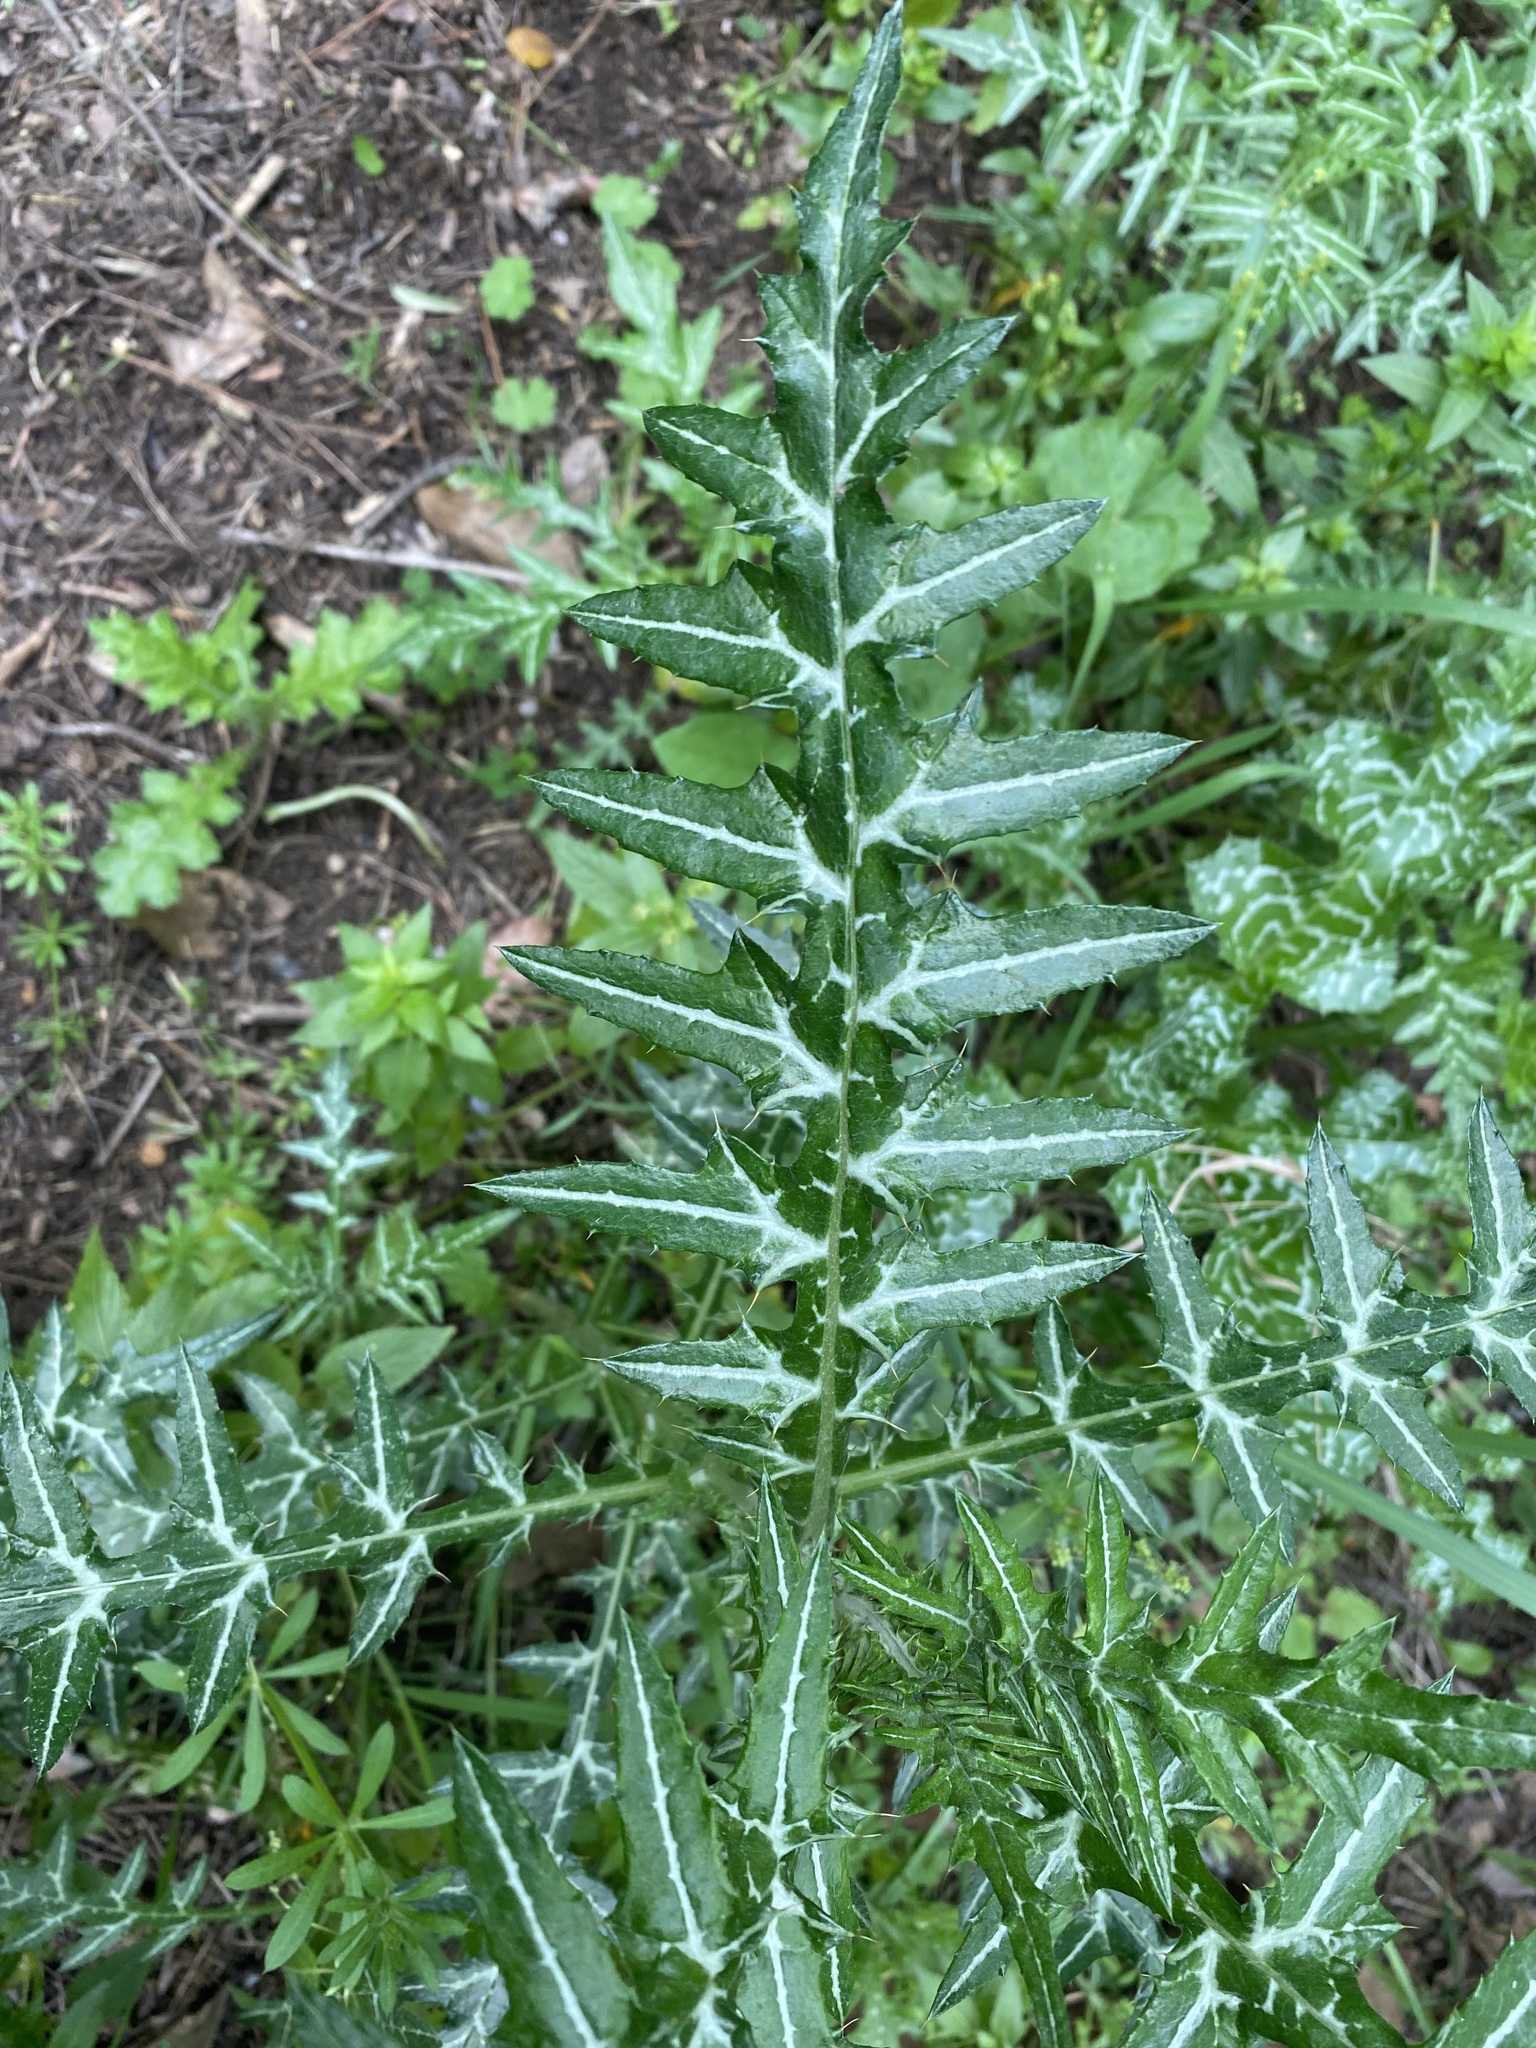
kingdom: Plantae
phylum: Tracheophyta
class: Magnoliopsida
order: Asterales
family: Asteraceae
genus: Galactites
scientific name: Galactites tomentosa
